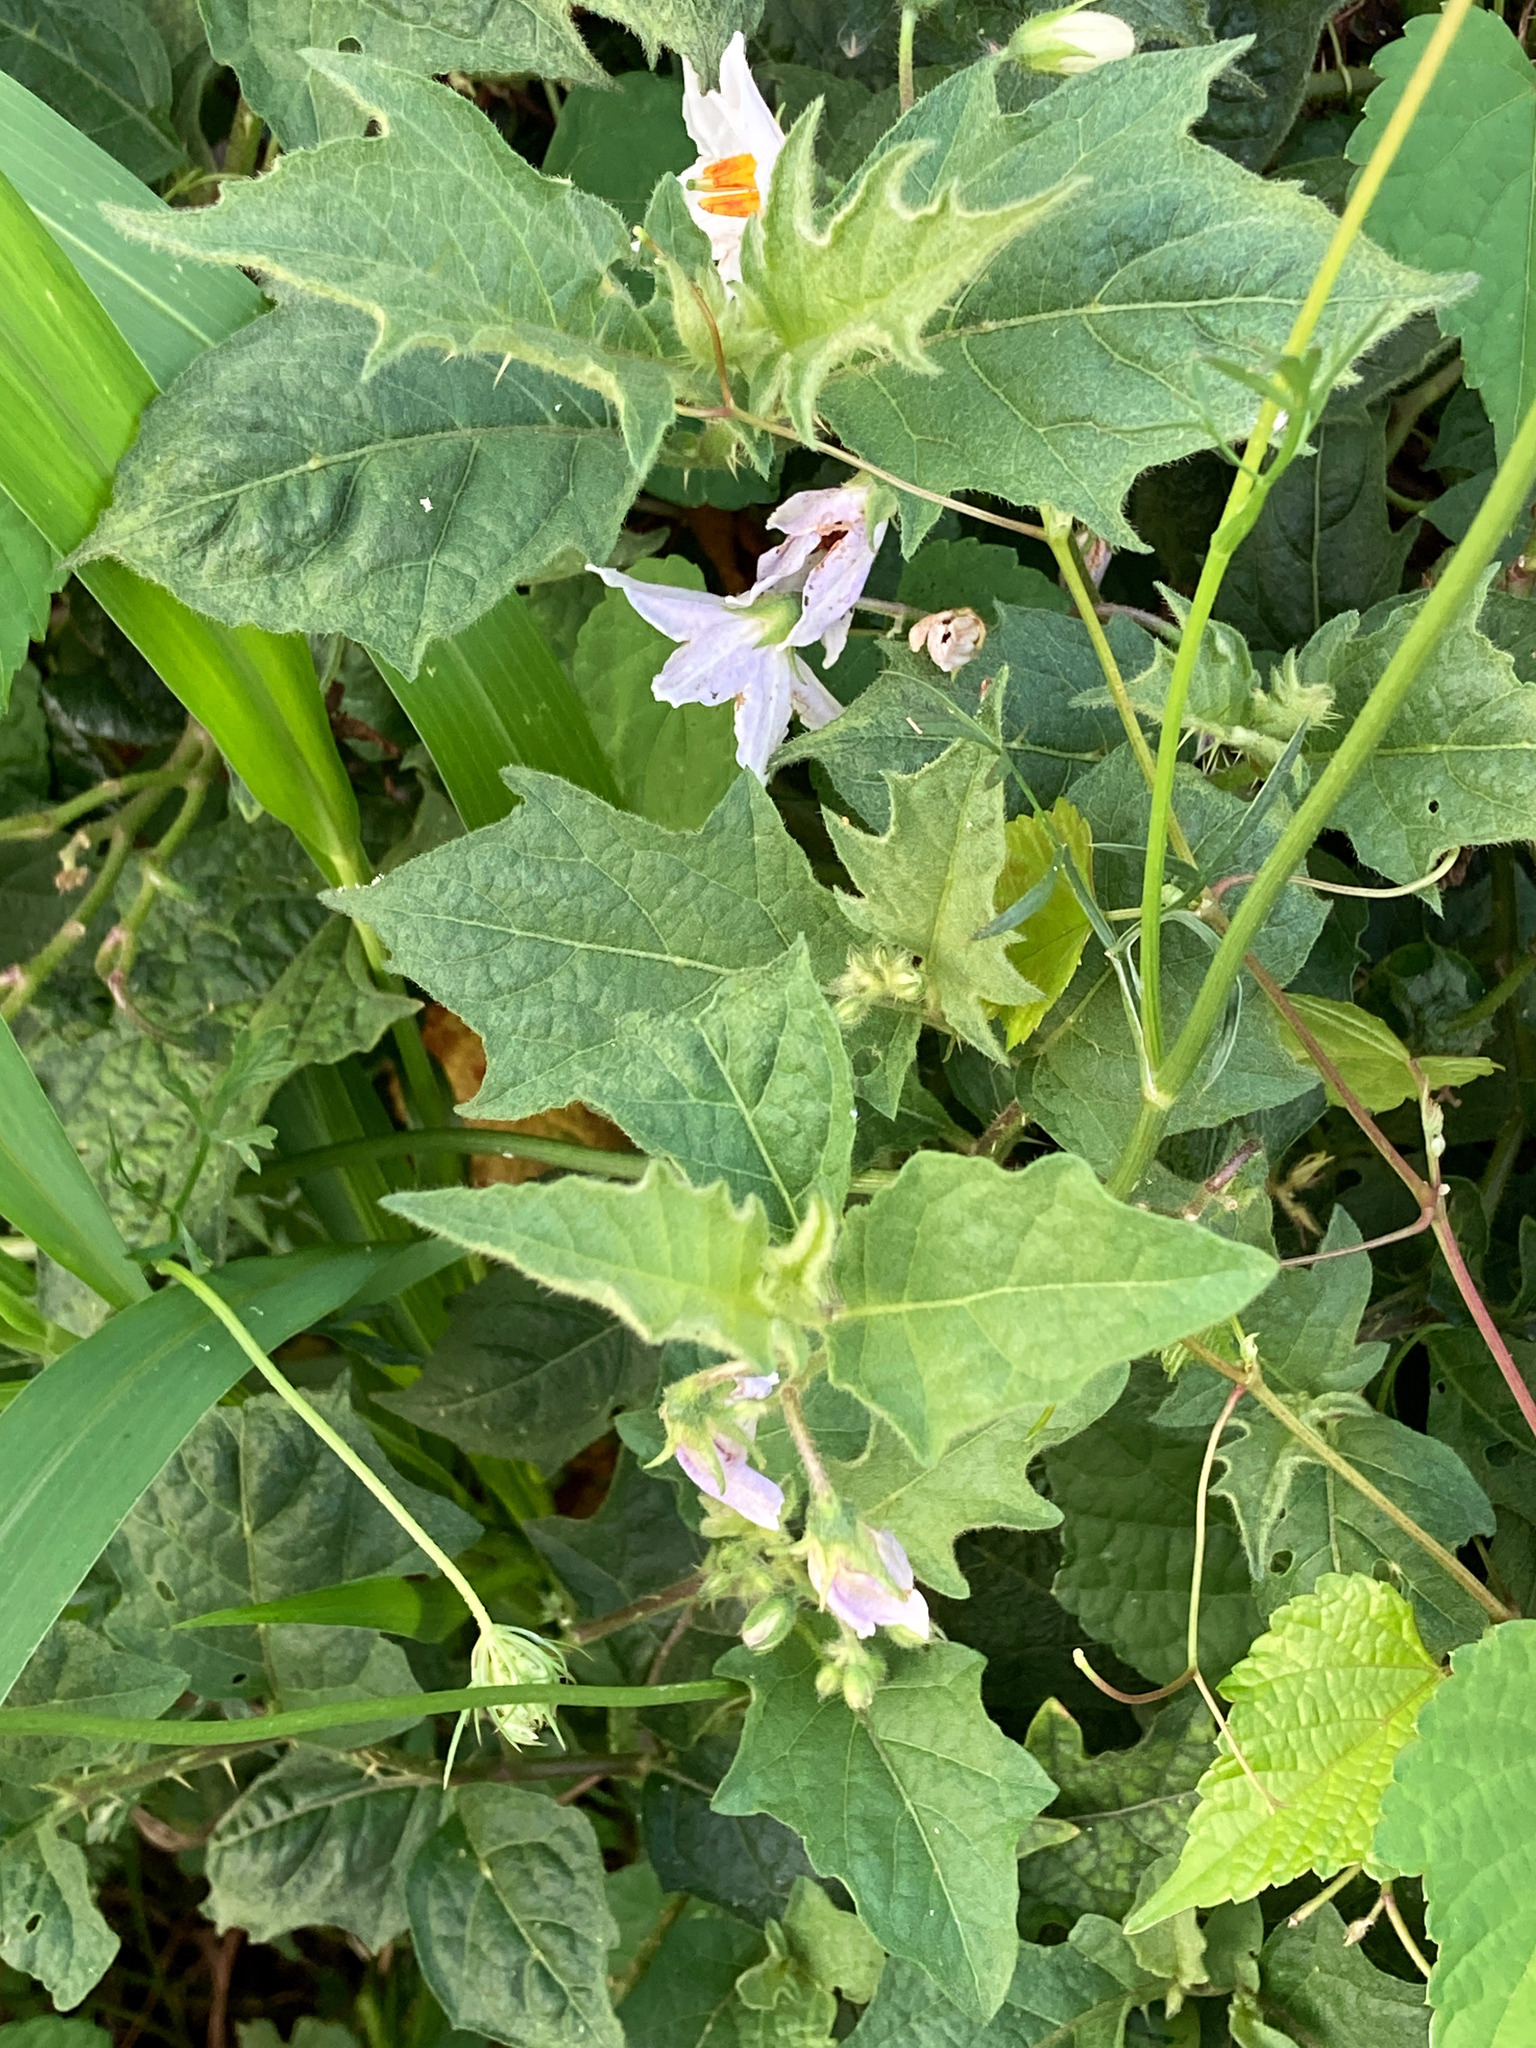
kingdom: Plantae
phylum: Tracheophyta
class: Magnoliopsida
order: Solanales
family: Solanaceae
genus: Solanum
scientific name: Solanum carolinense
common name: Horse-nettle
